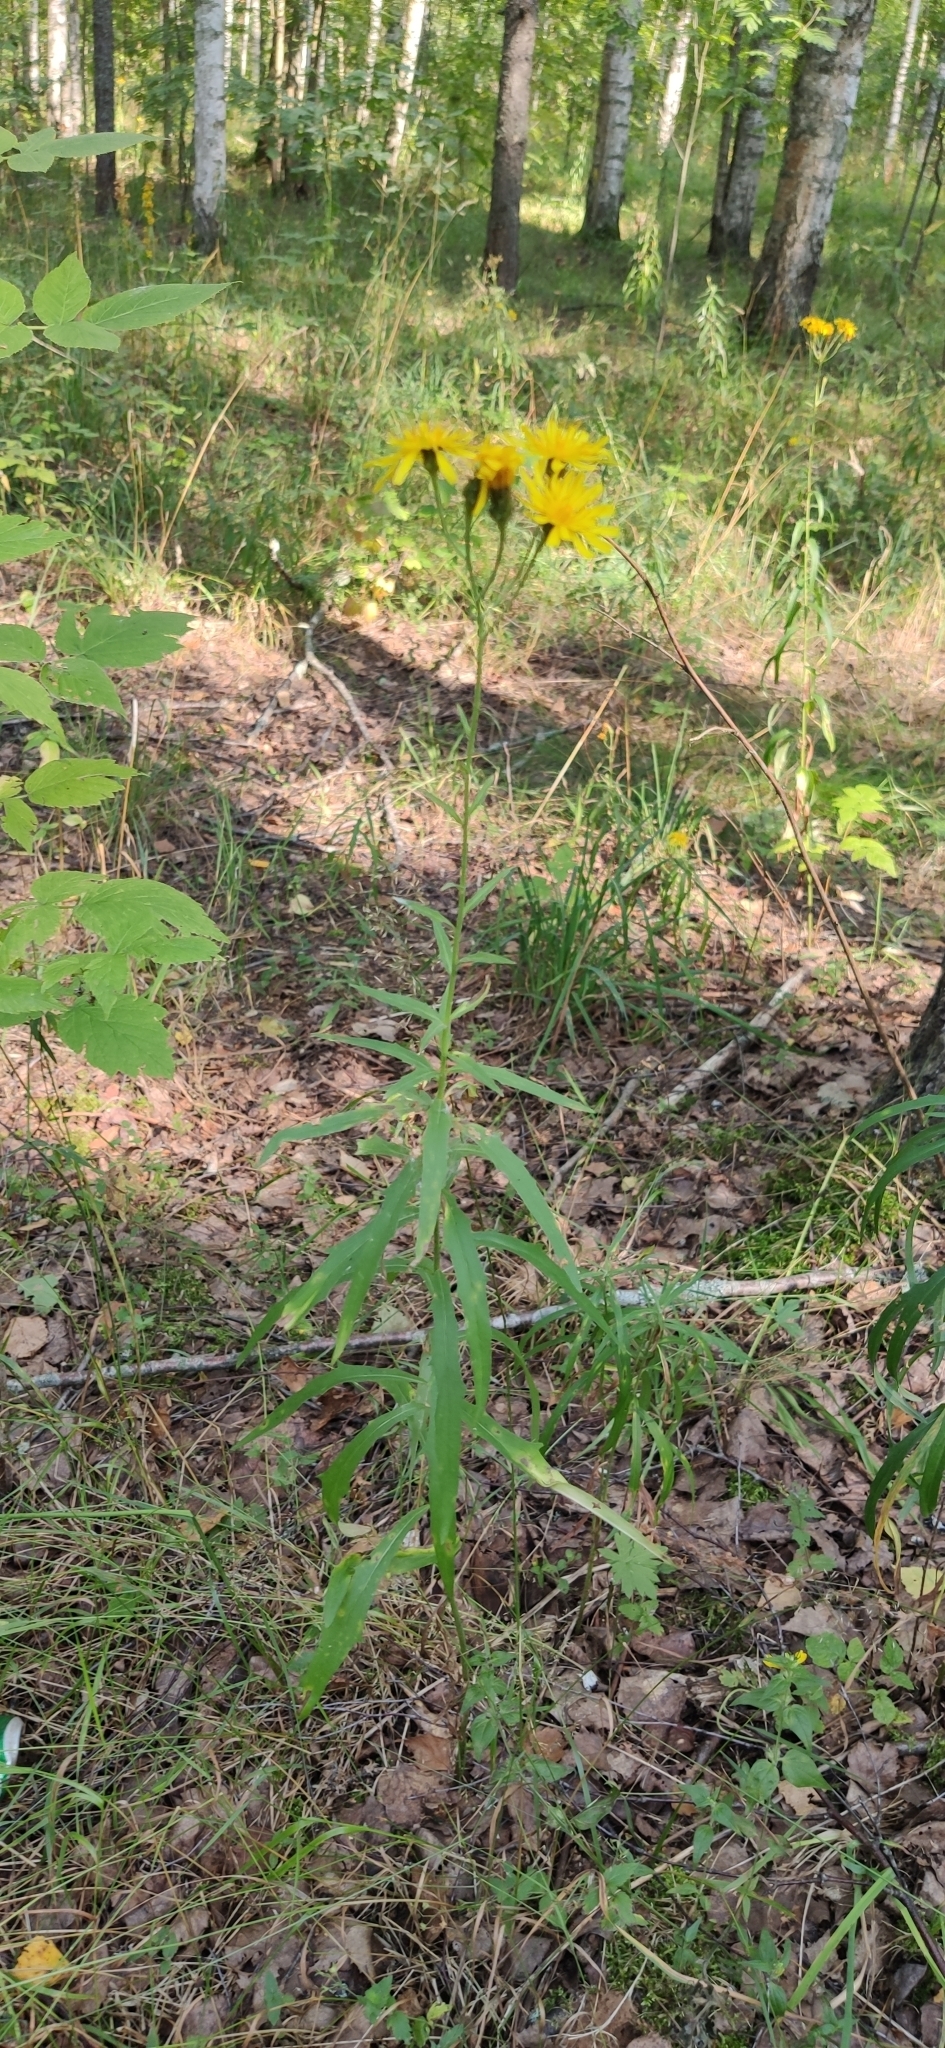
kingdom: Plantae
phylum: Tracheophyta
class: Magnoliopsida
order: Asterales
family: Asteraceae
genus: Hieracium
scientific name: Hieracium umbellatum
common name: Northern hawkweed
